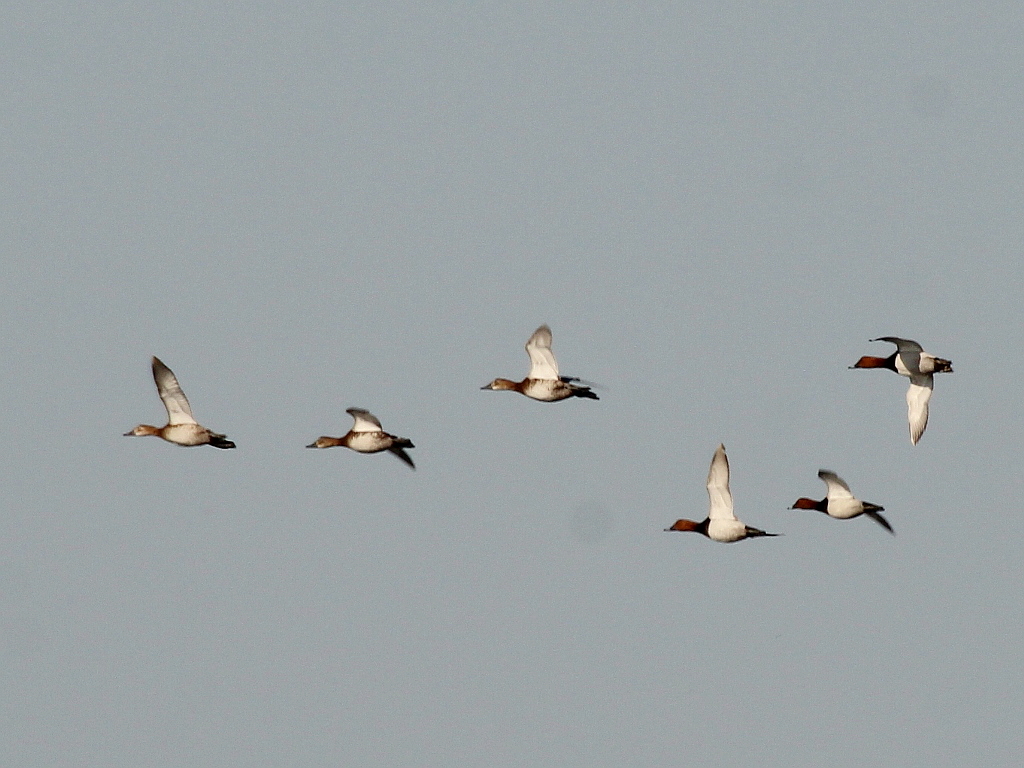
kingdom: Animalia
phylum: Chordata
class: Aves
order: Anseriformes
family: Anatidae
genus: Aythya
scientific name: Aythya ferina
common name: Common pochard
